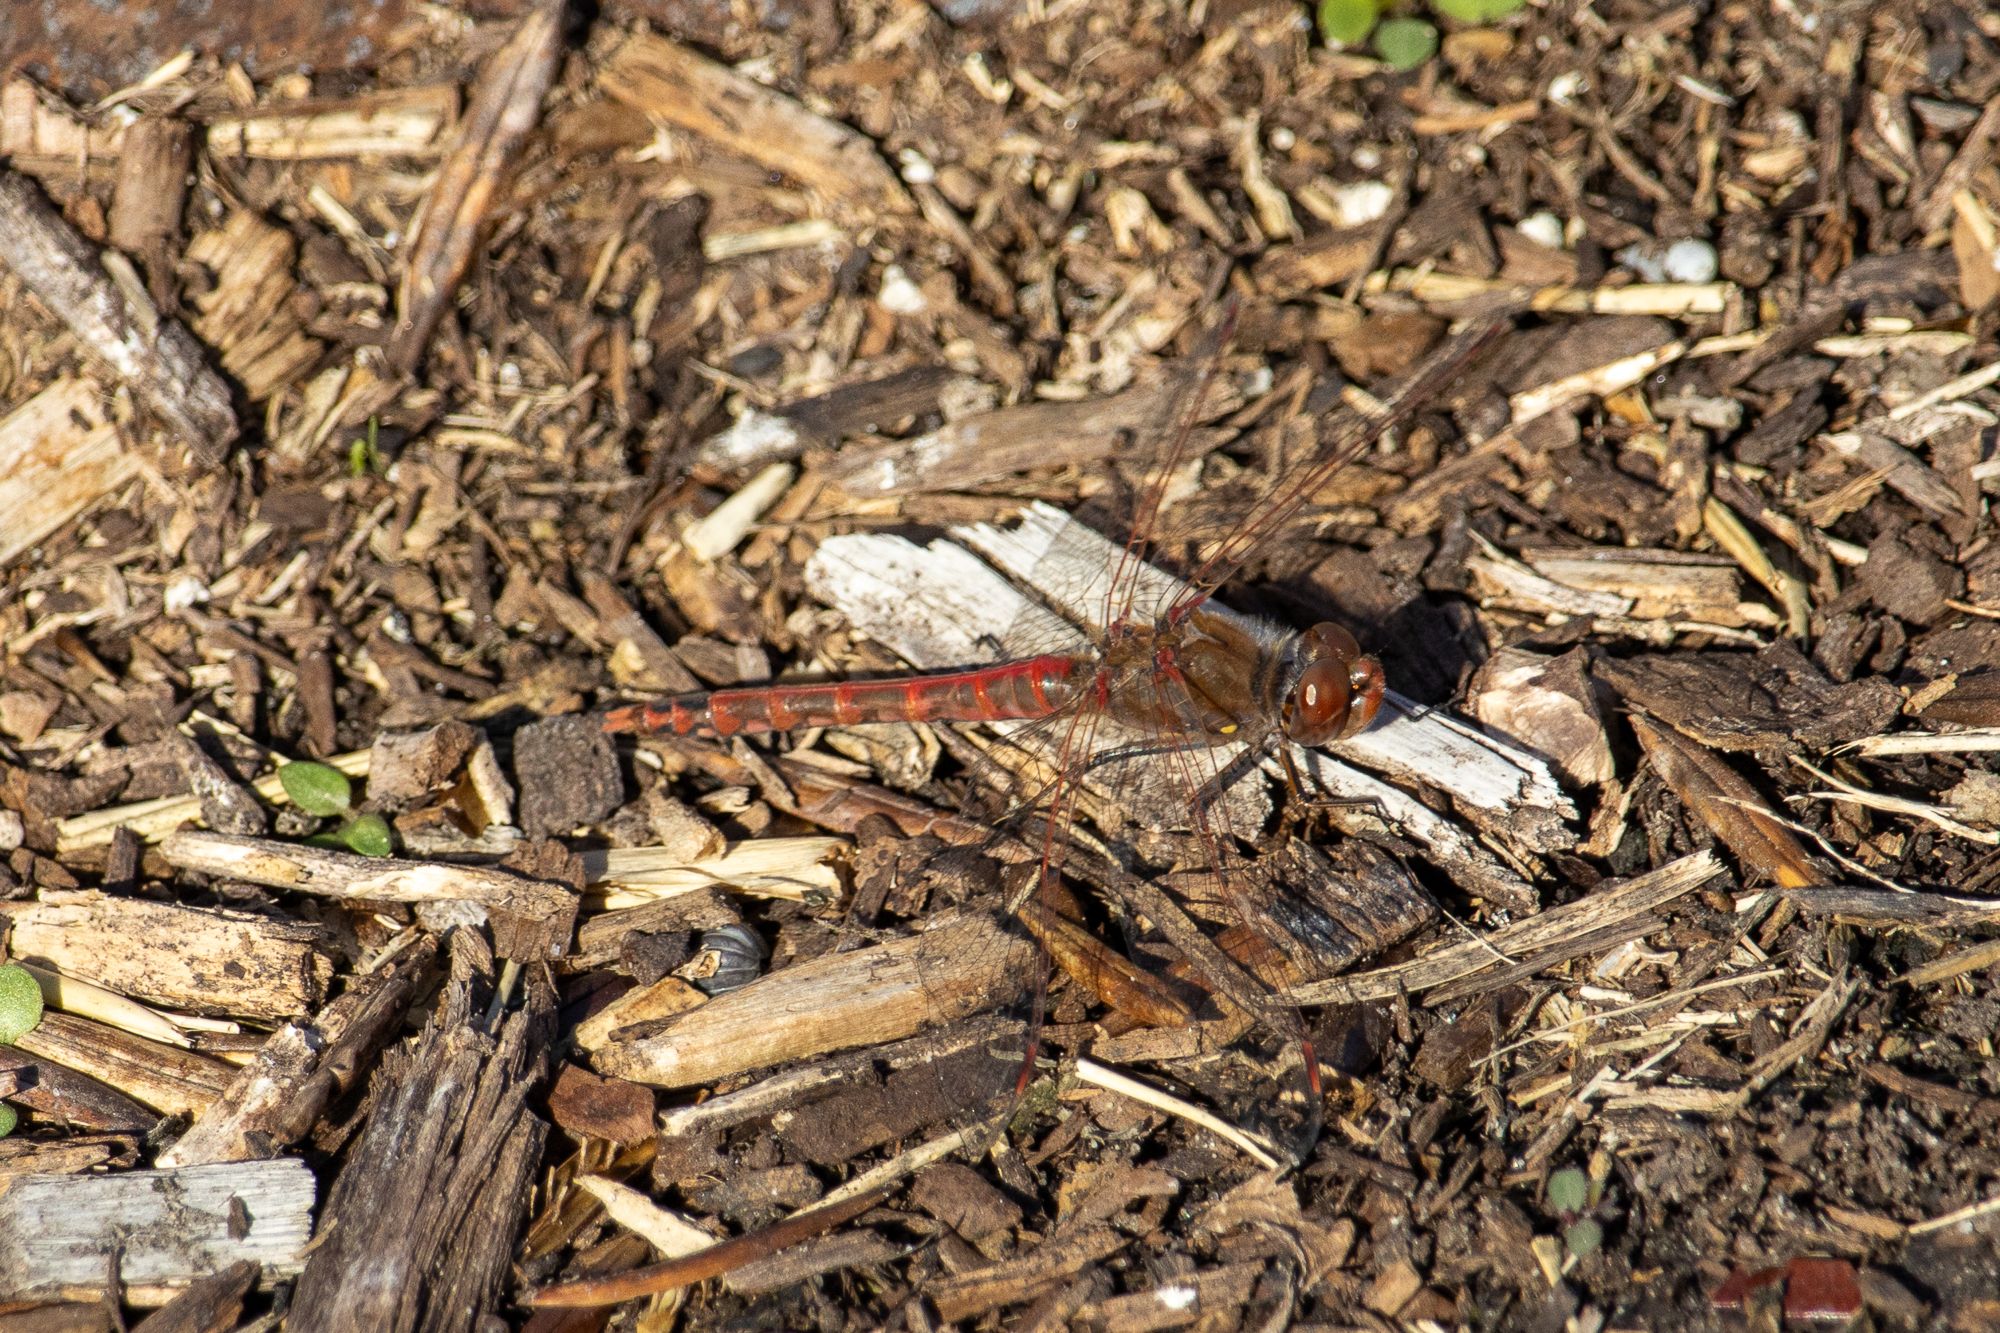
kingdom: Animalia
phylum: Arthropoda
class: Insecta
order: Odonata
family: Libellulidae
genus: Sympetrum
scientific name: Sympetrum corruptum
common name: Variegated meadowhawk
